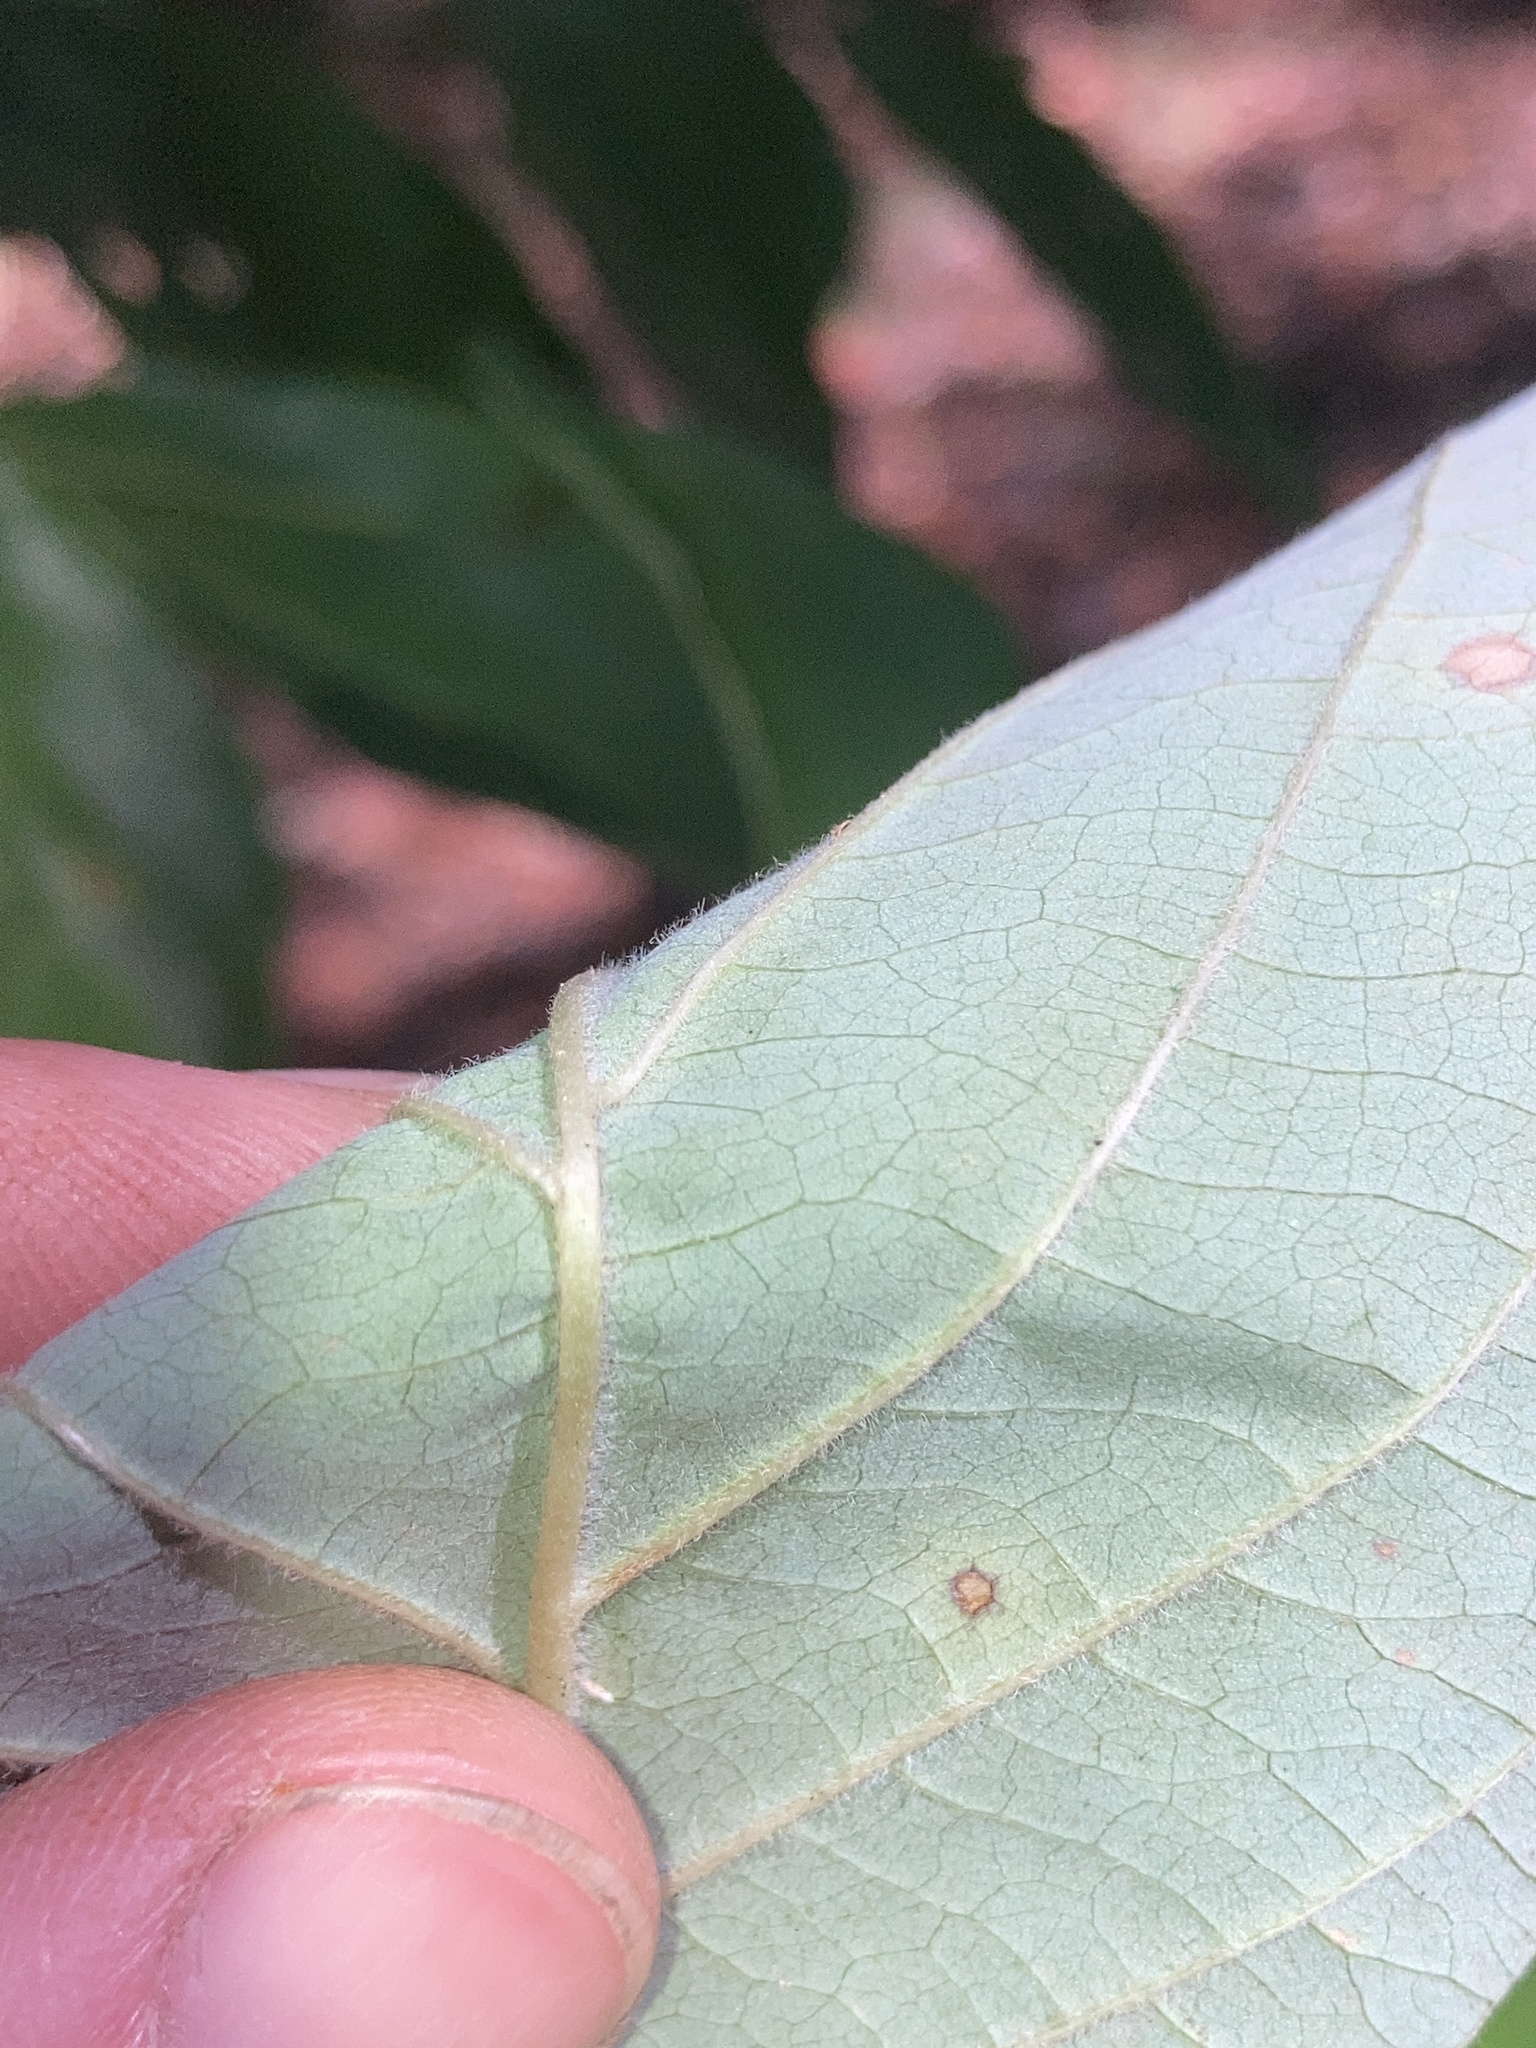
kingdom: Plantae
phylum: Tracheophyta
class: Magnoliopsida
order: Cornales
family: Cornaceae
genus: Cornus
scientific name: Cornus florida
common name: Flowering dogwood
